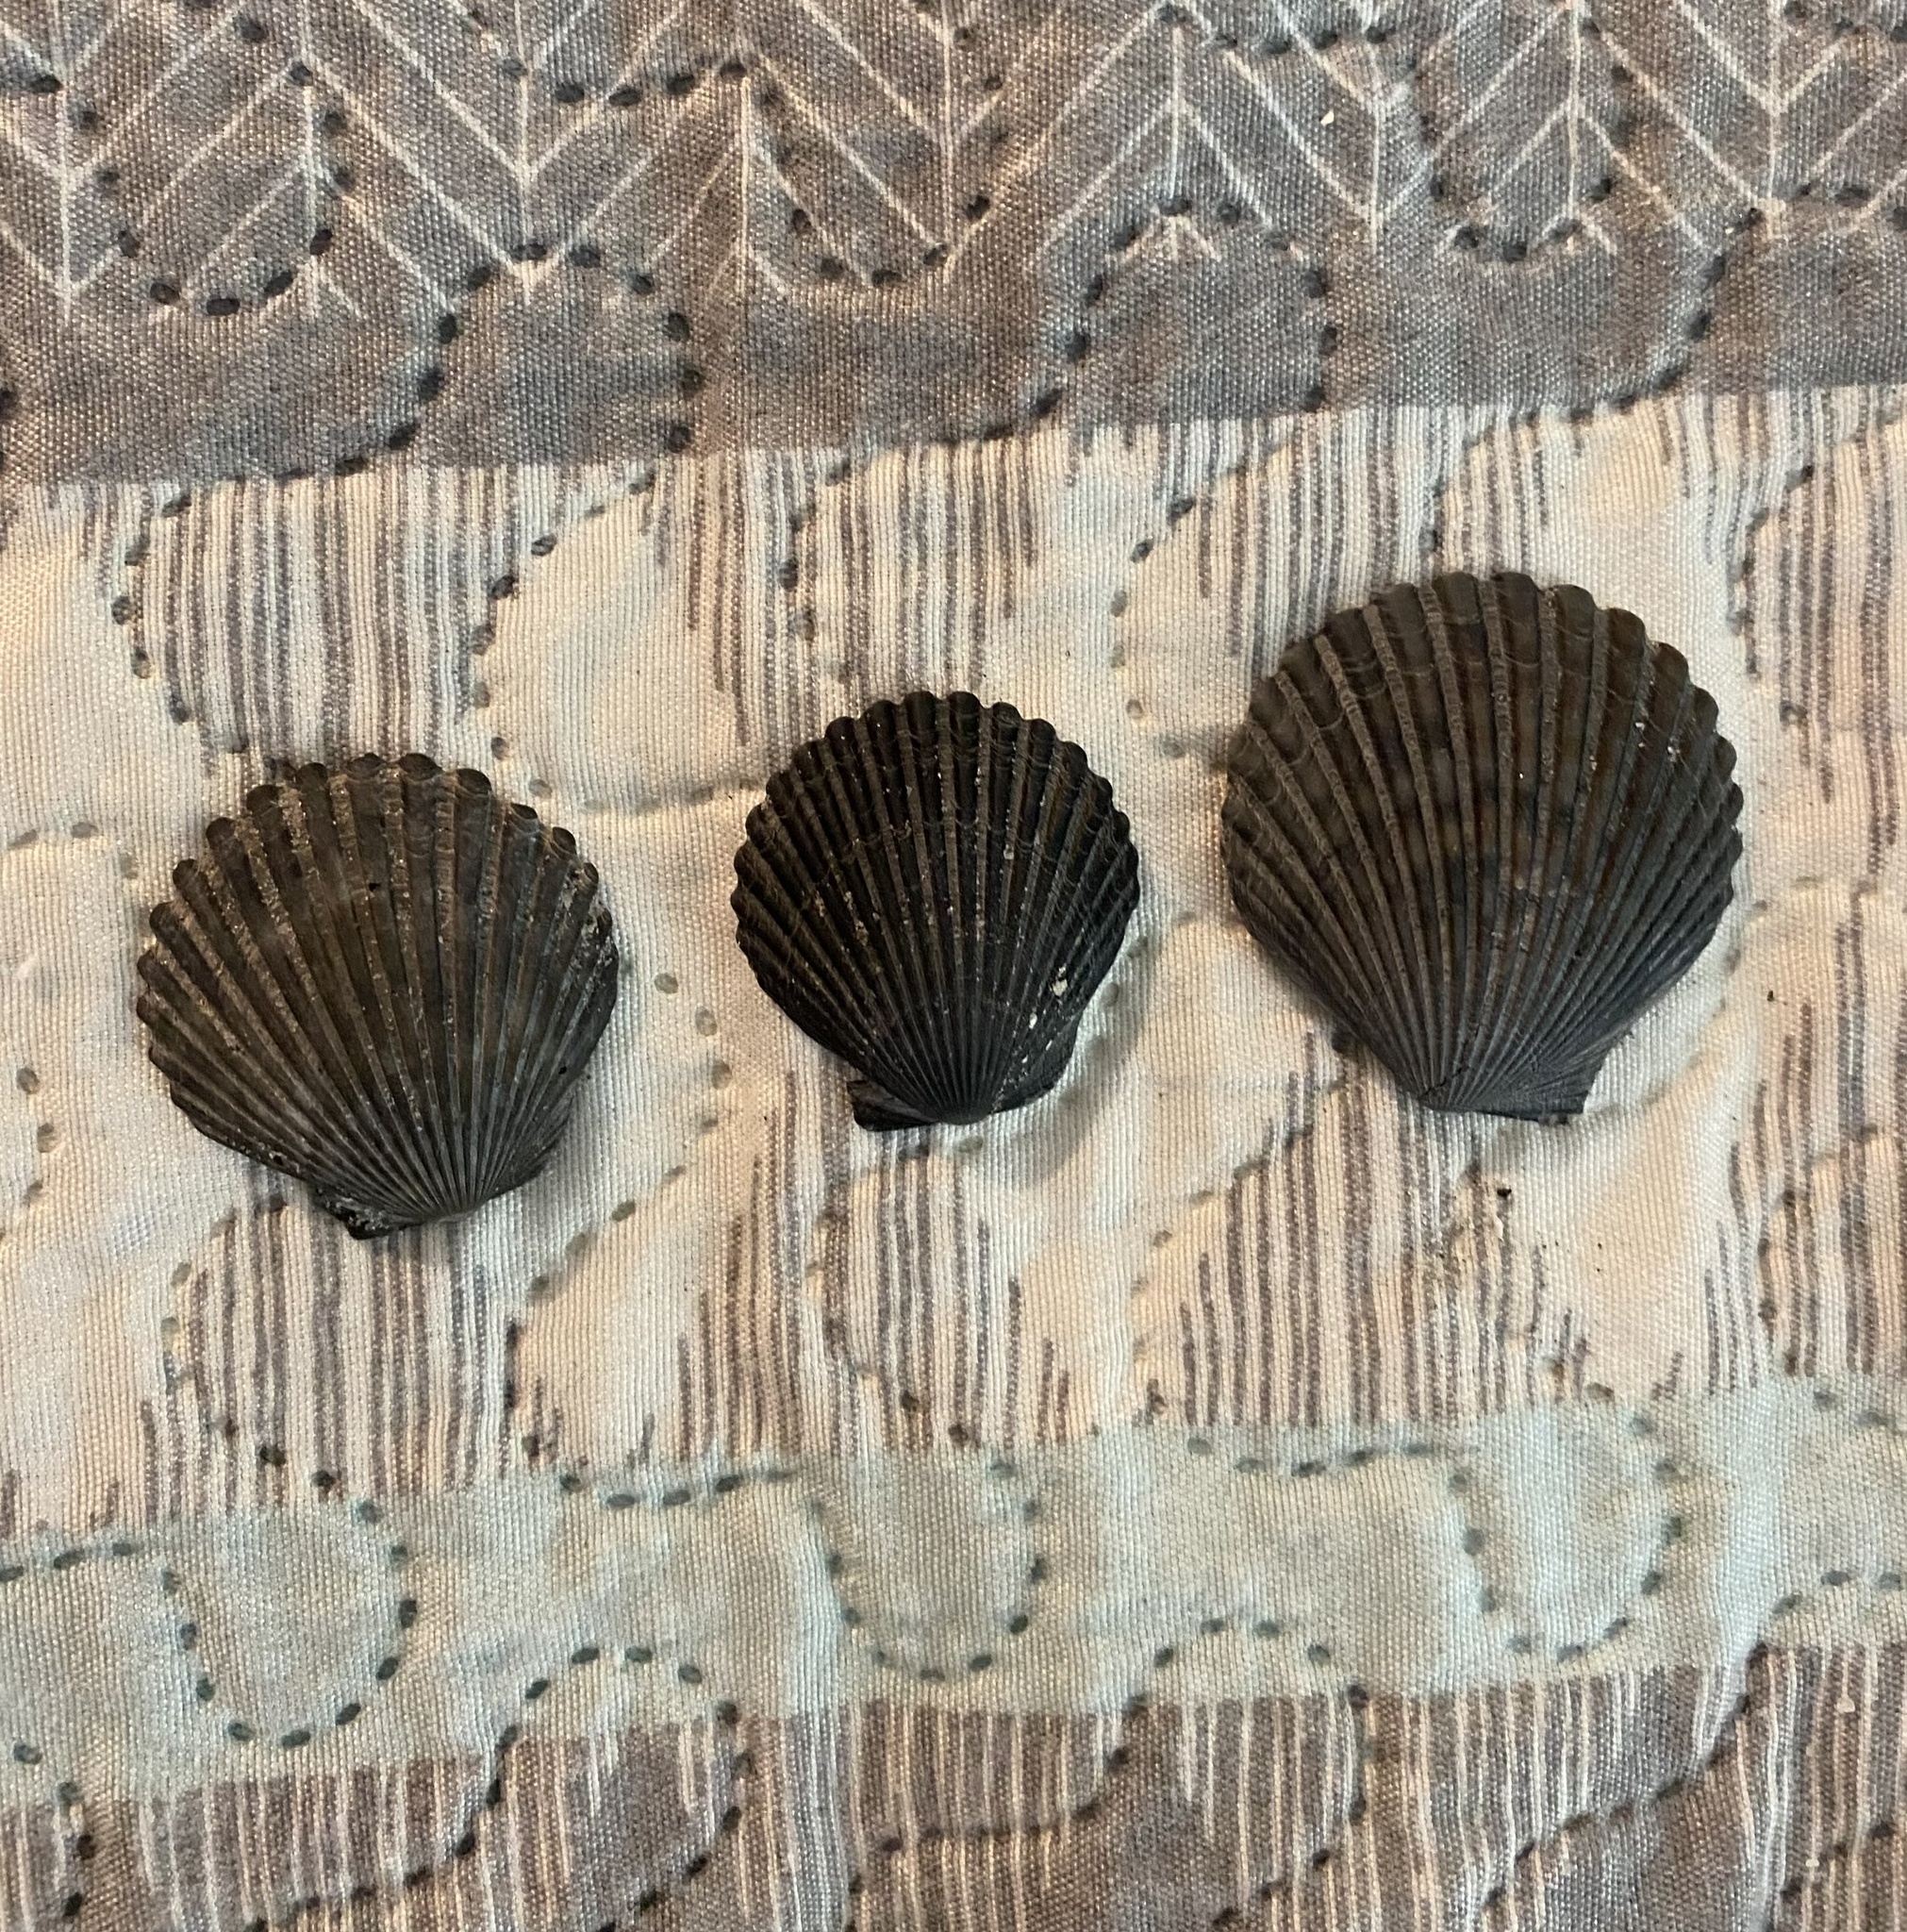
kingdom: Animalia
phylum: Mollusca
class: Bivalvia
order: Pectinida
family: Pectinidae
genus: Argopecten
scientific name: Argopecten irradians
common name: Atlantic bay scallop
